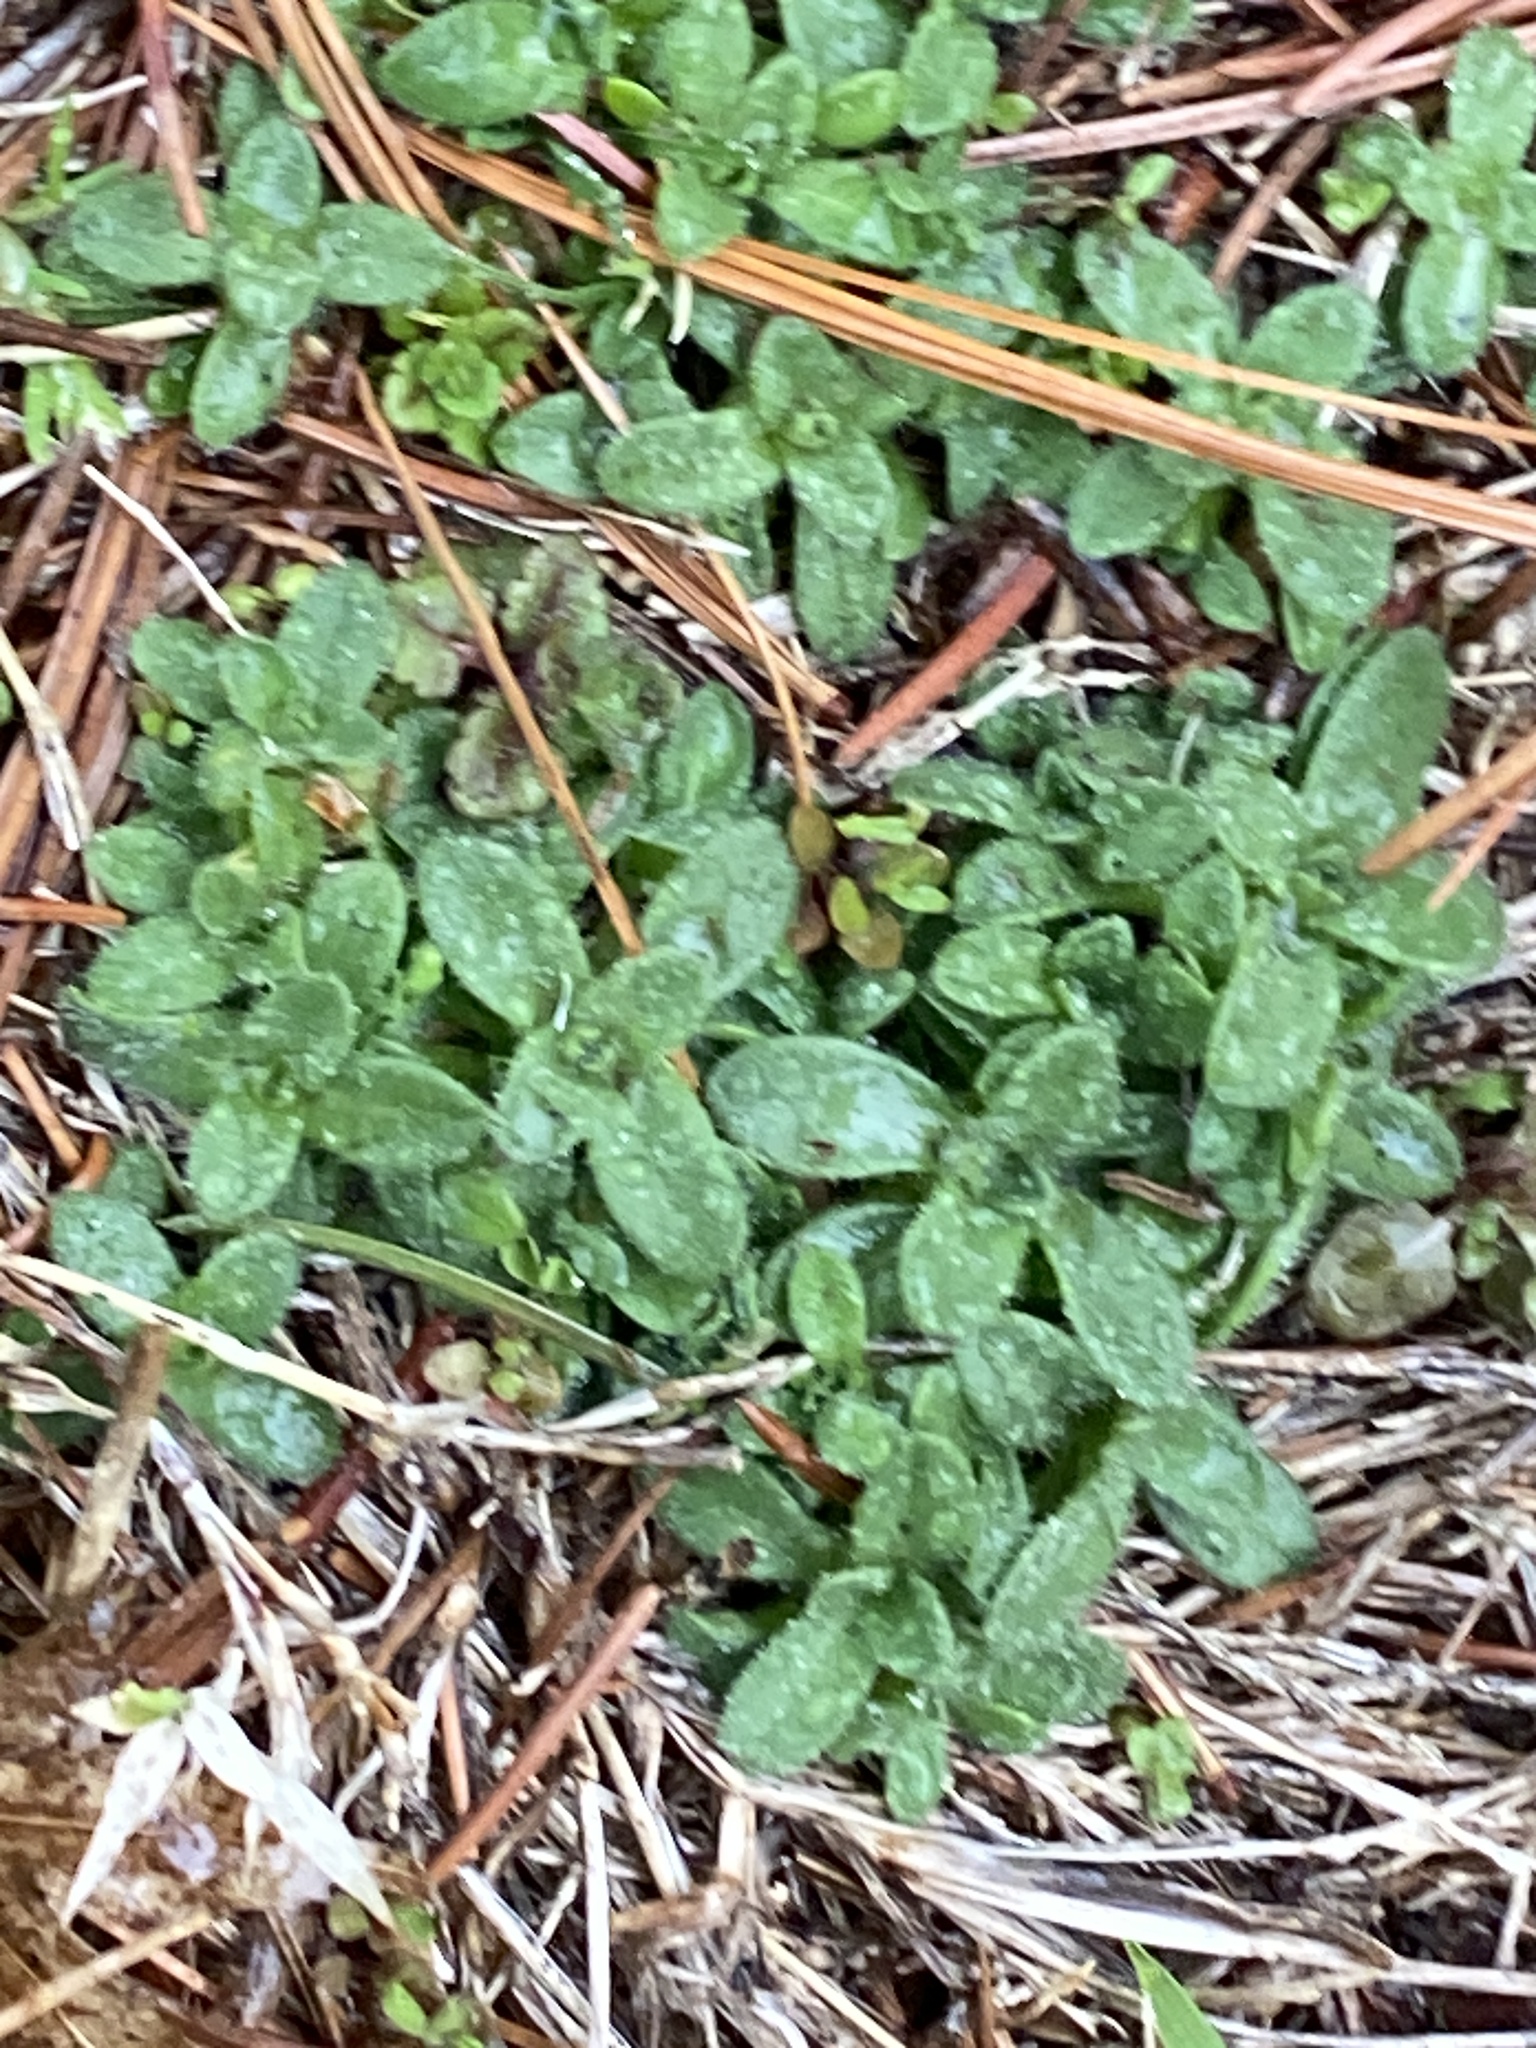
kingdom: Plantae
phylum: Tracheophyta
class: Magnoliopsida
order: Caryophyllales
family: Caryophyllaceae
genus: Cerastium
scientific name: Cerastium fontanum
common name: Common mouse-ear
